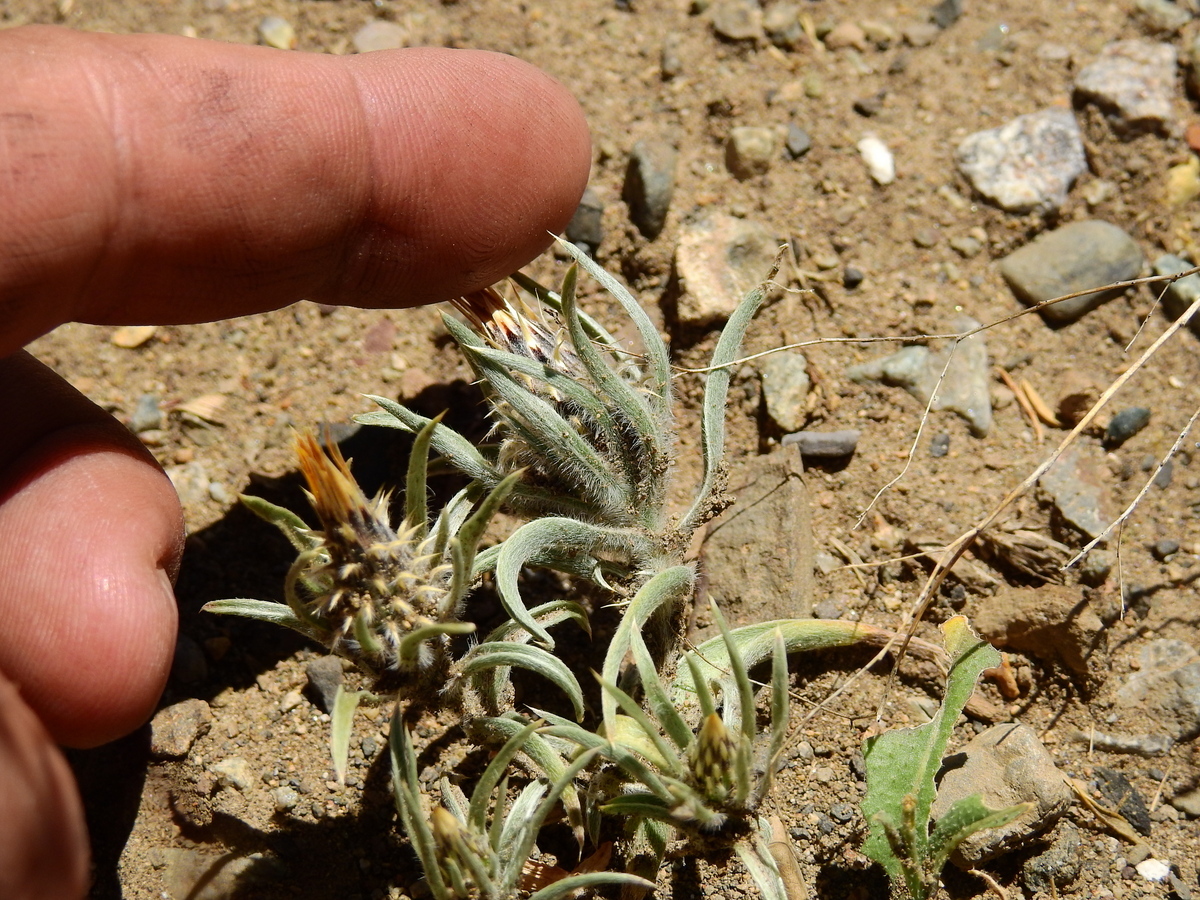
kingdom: Plantae
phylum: Tracheophyta
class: Magnoliopsida
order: Asterales
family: Asteraceae
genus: Doniophyton
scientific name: Doniophyton anomalum
